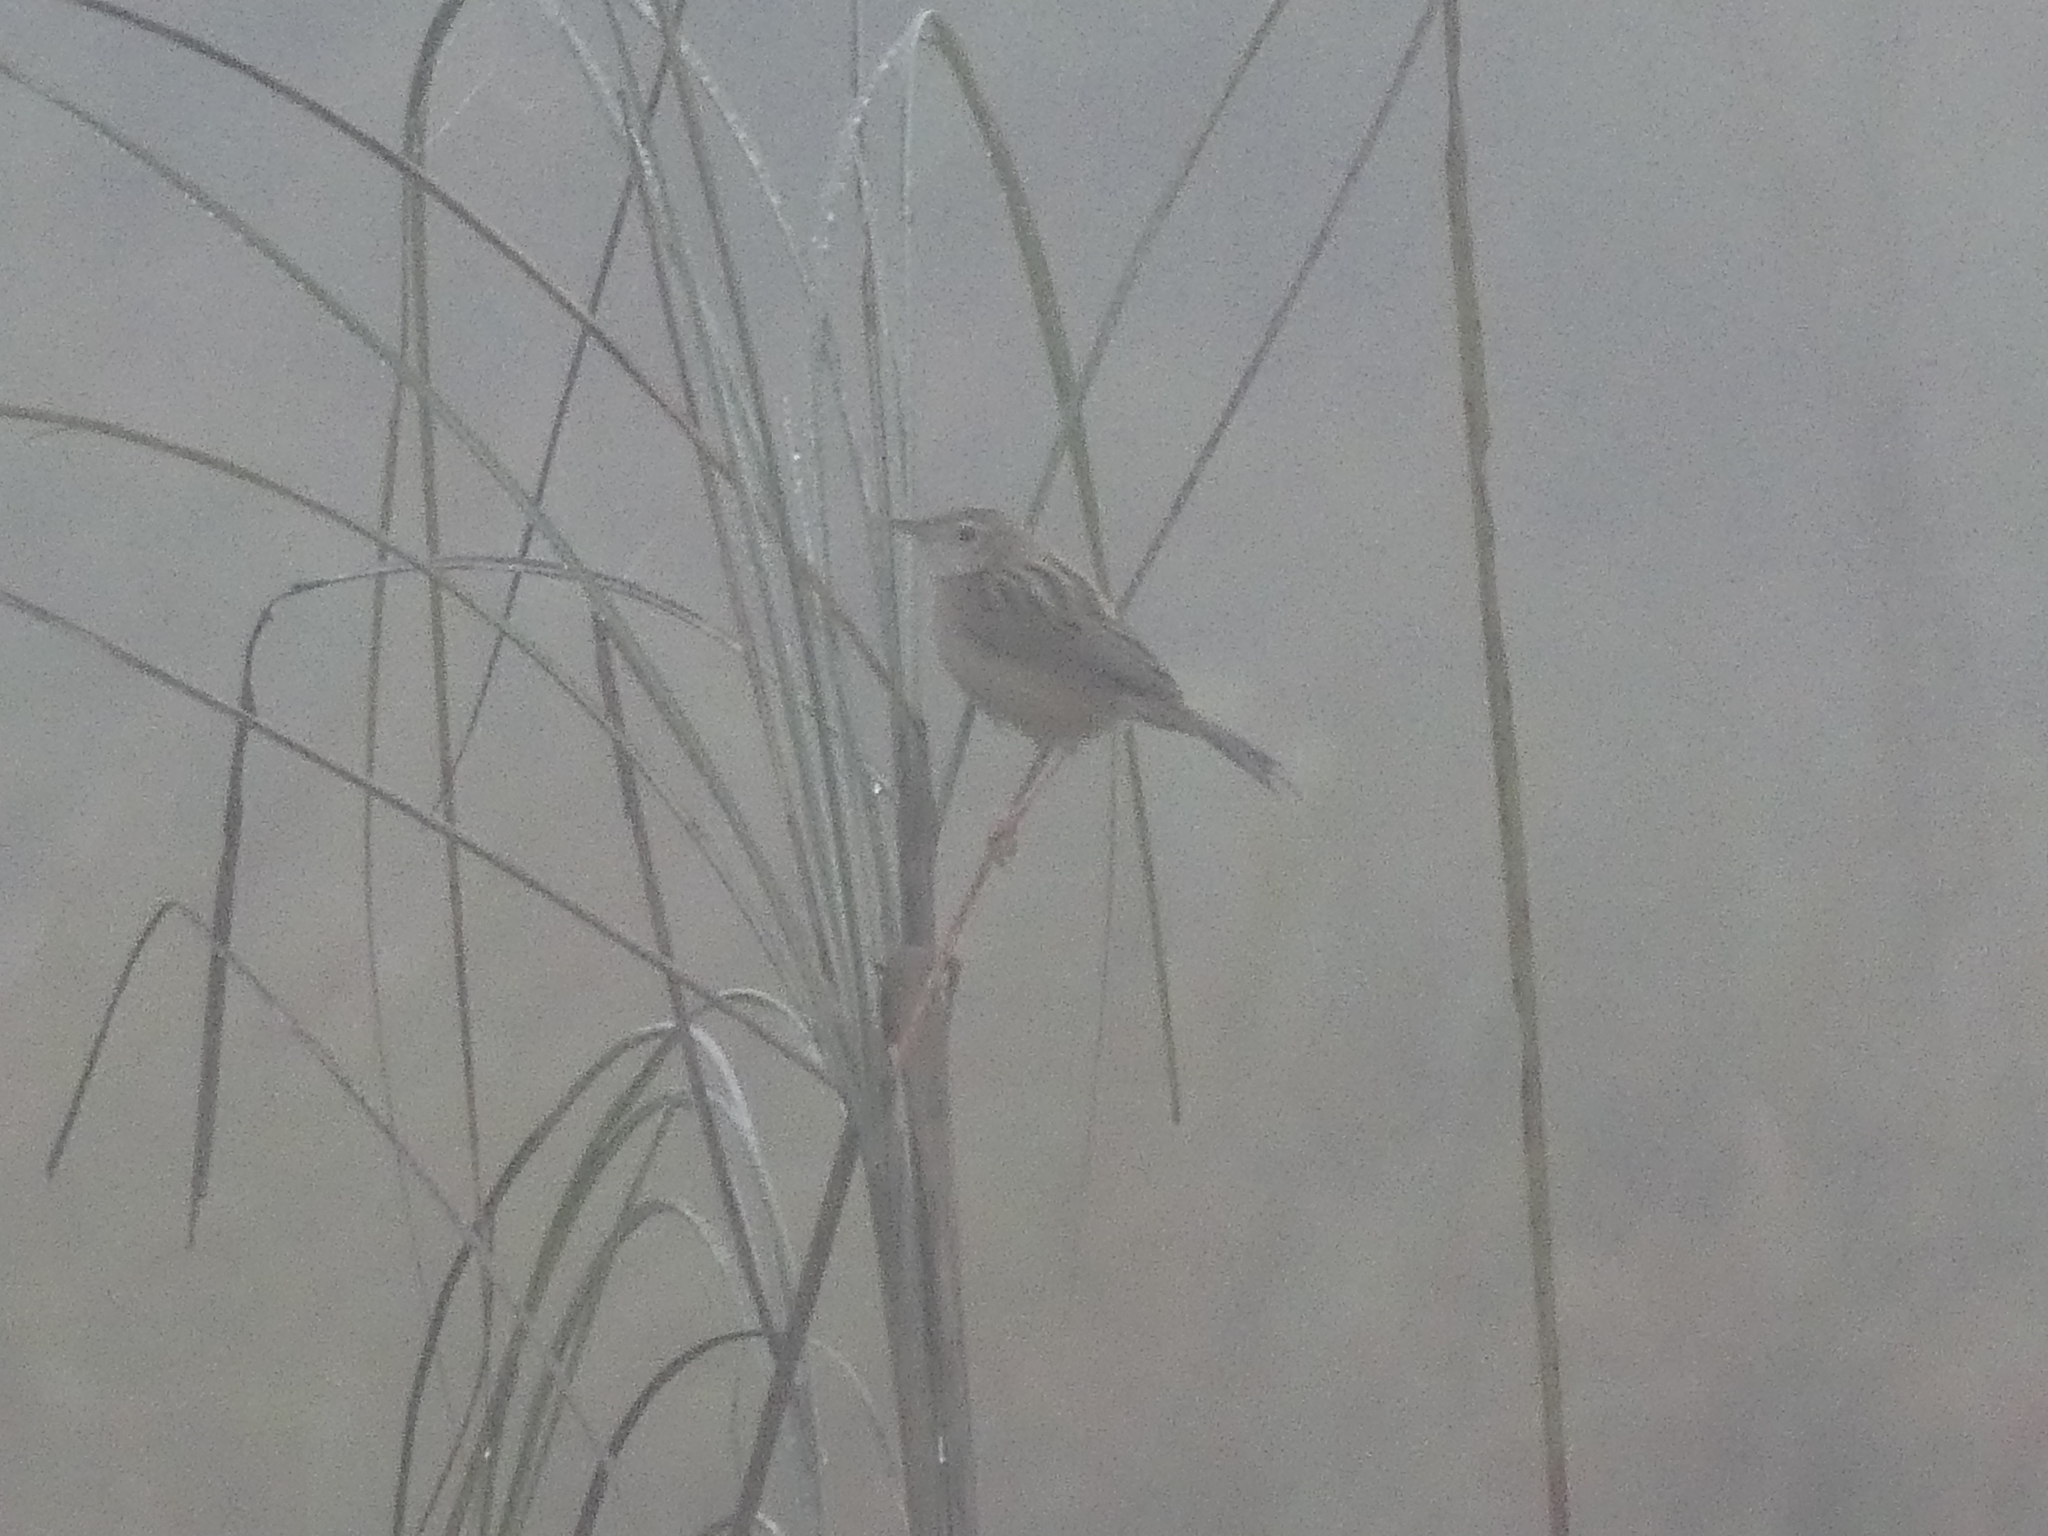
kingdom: Animalia
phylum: Chordata
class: Aves
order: Passeriformes
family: Cisticolidae
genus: Cisticola
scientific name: Cisticola juncidis
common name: Zitting cisticola
